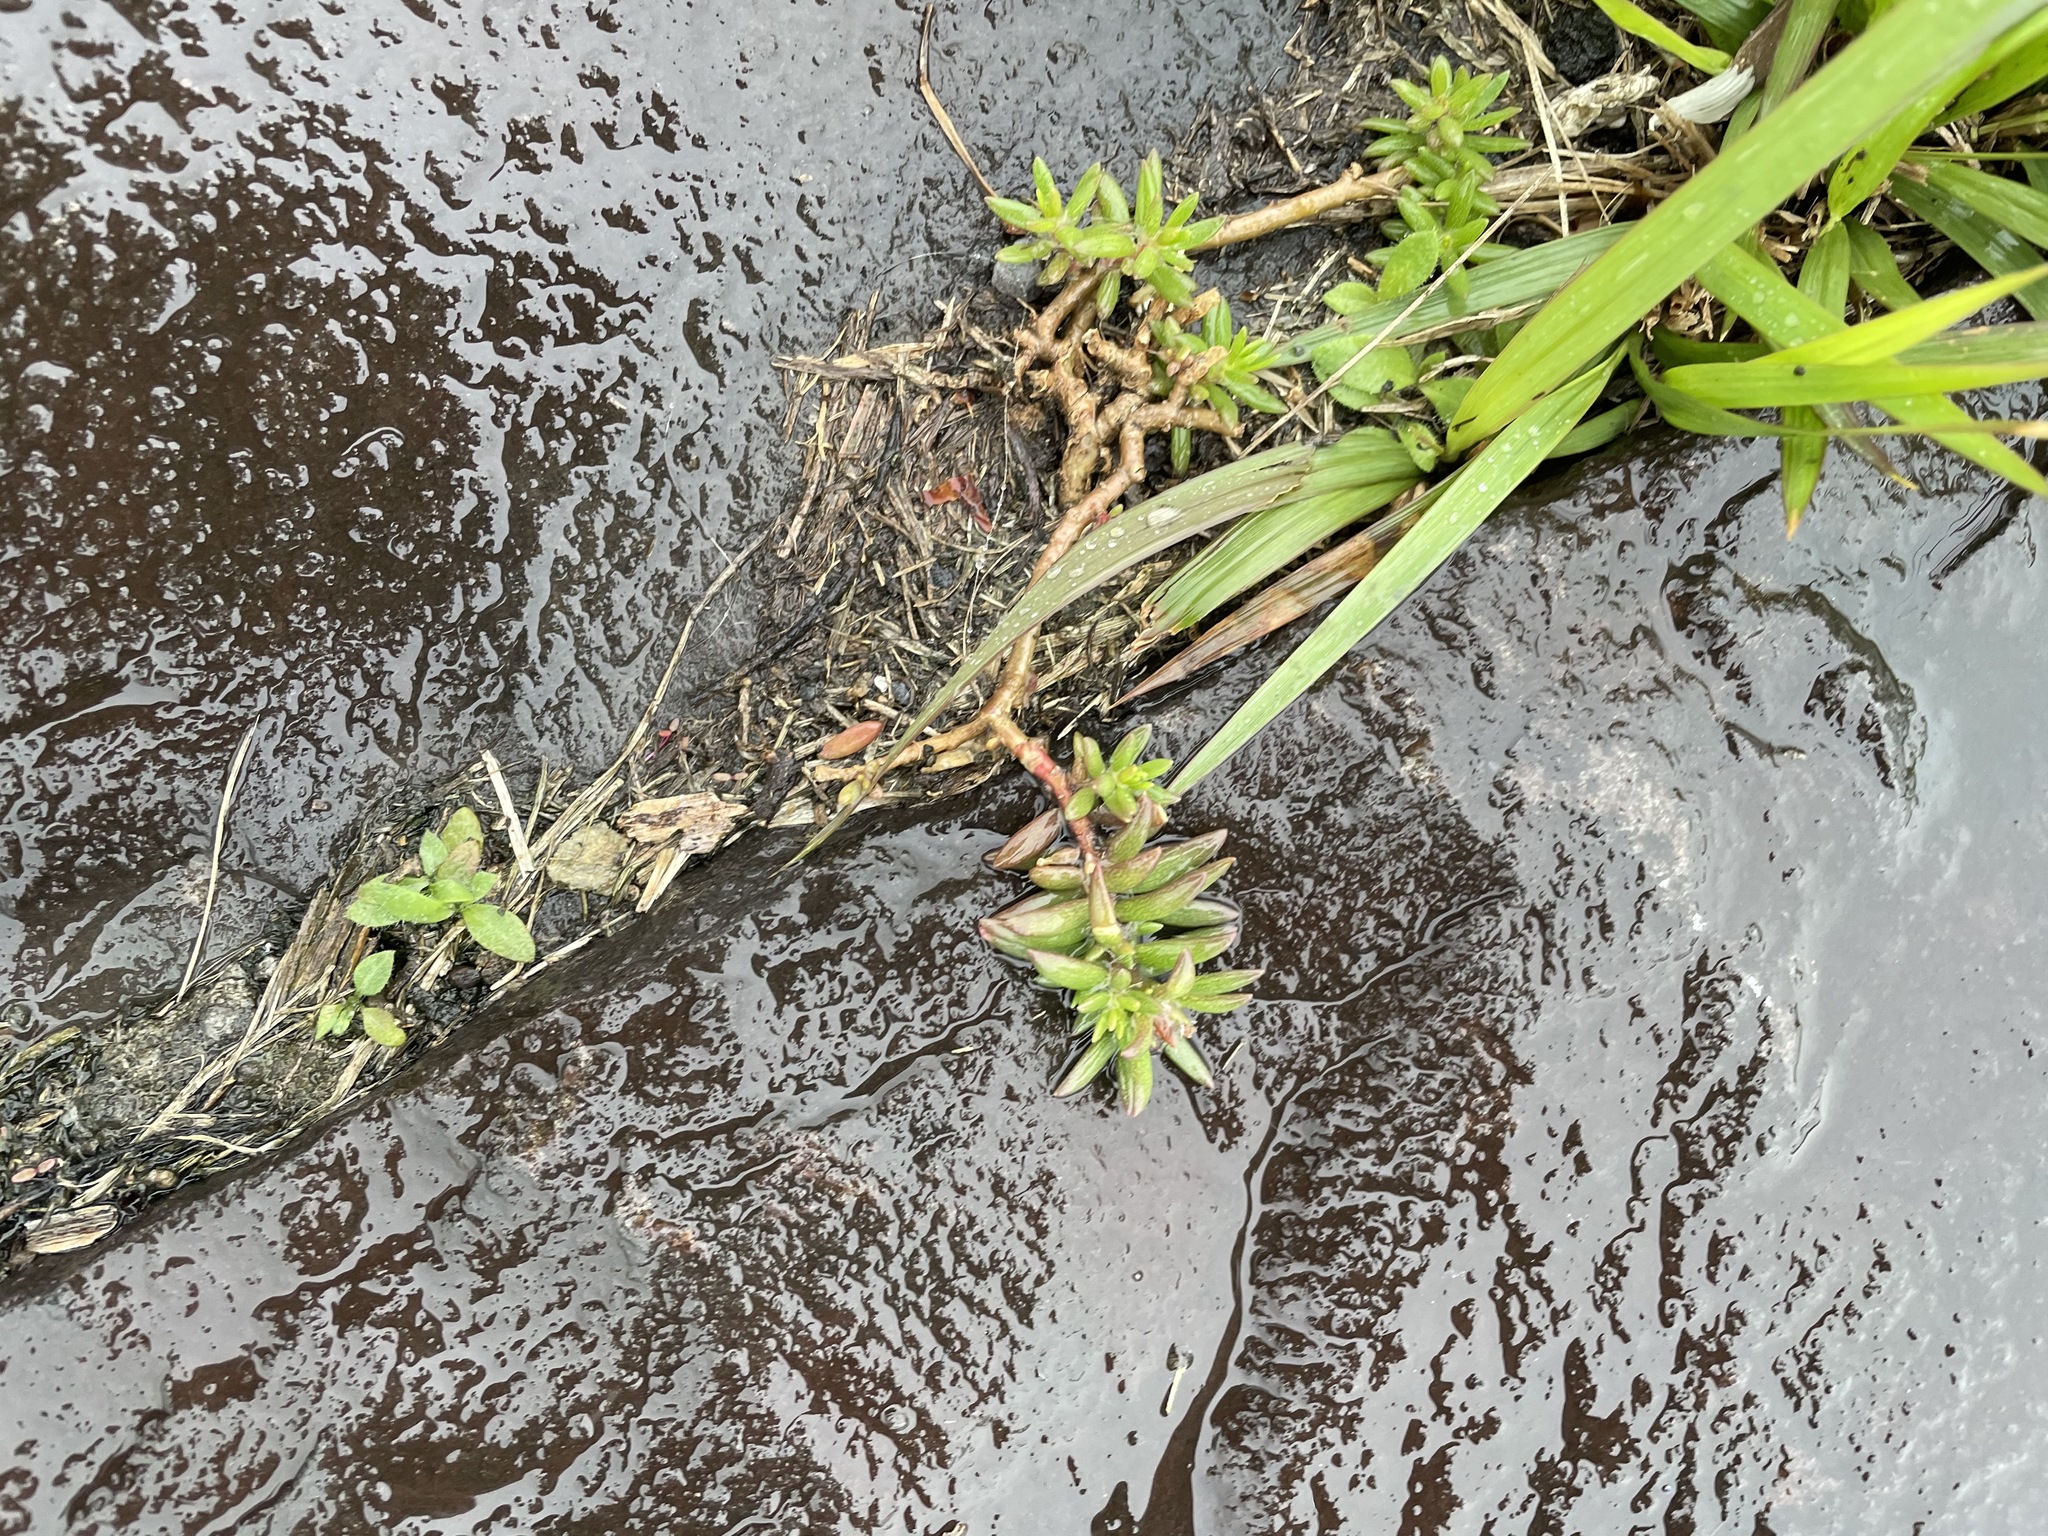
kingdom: Plantae
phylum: Tracheophyta
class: Magnoliopsida
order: Caryophyllales
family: Portulacaceae
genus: Portulaca
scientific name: Portulaca pilosa
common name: Kiss me quick
